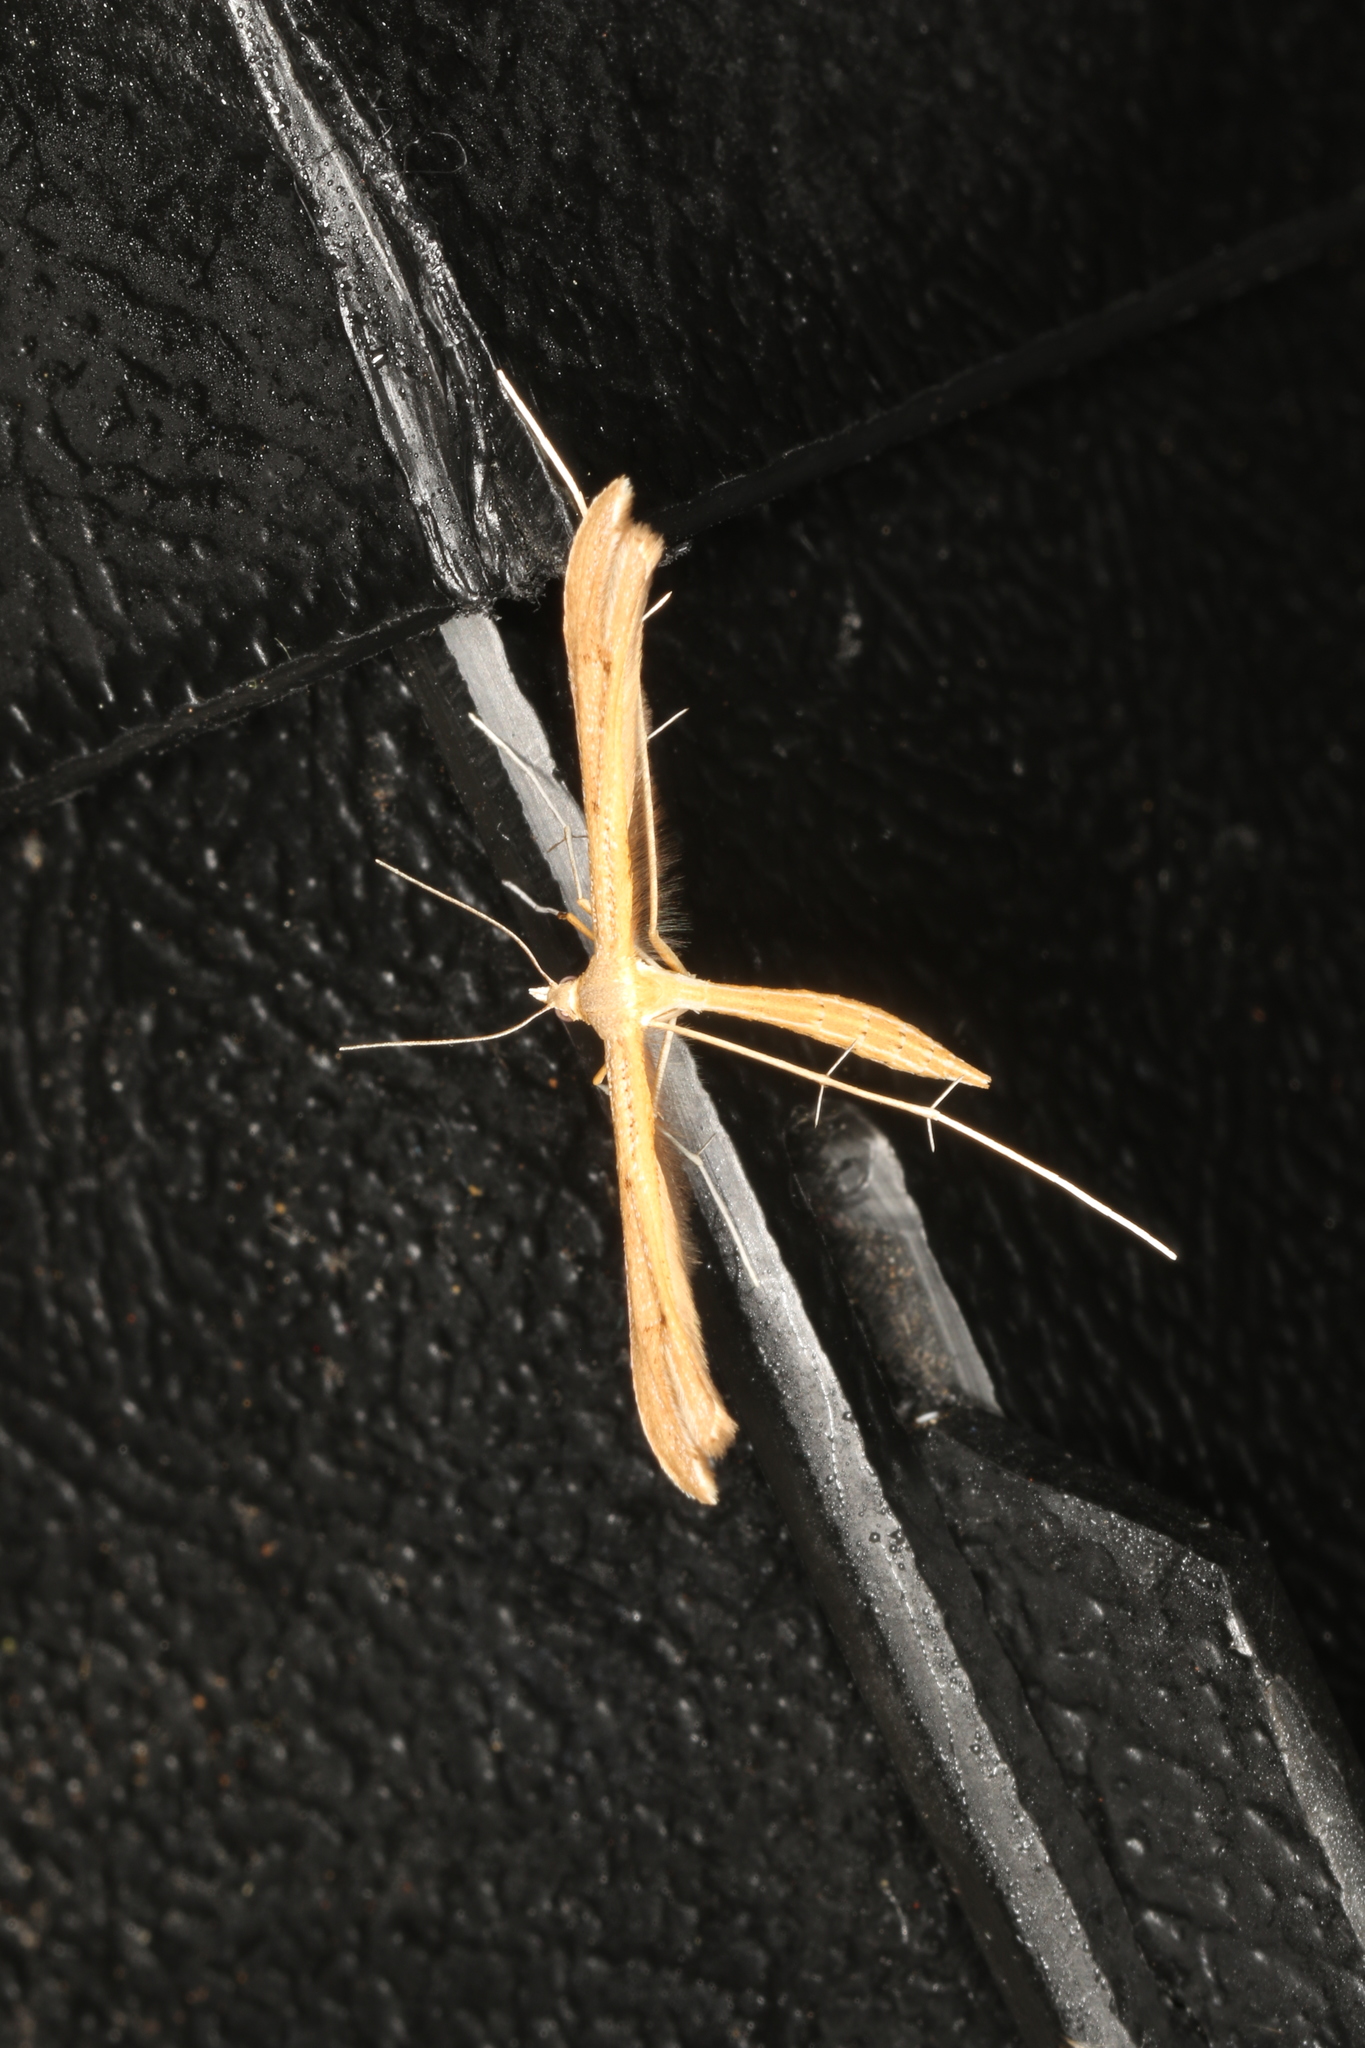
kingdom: Animalia
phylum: Arthropoda
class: Insecta
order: Lepidoptera
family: Pterophoridae
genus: Stenoptilia
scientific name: Stenoptilia pterodactyla
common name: Brown plume
